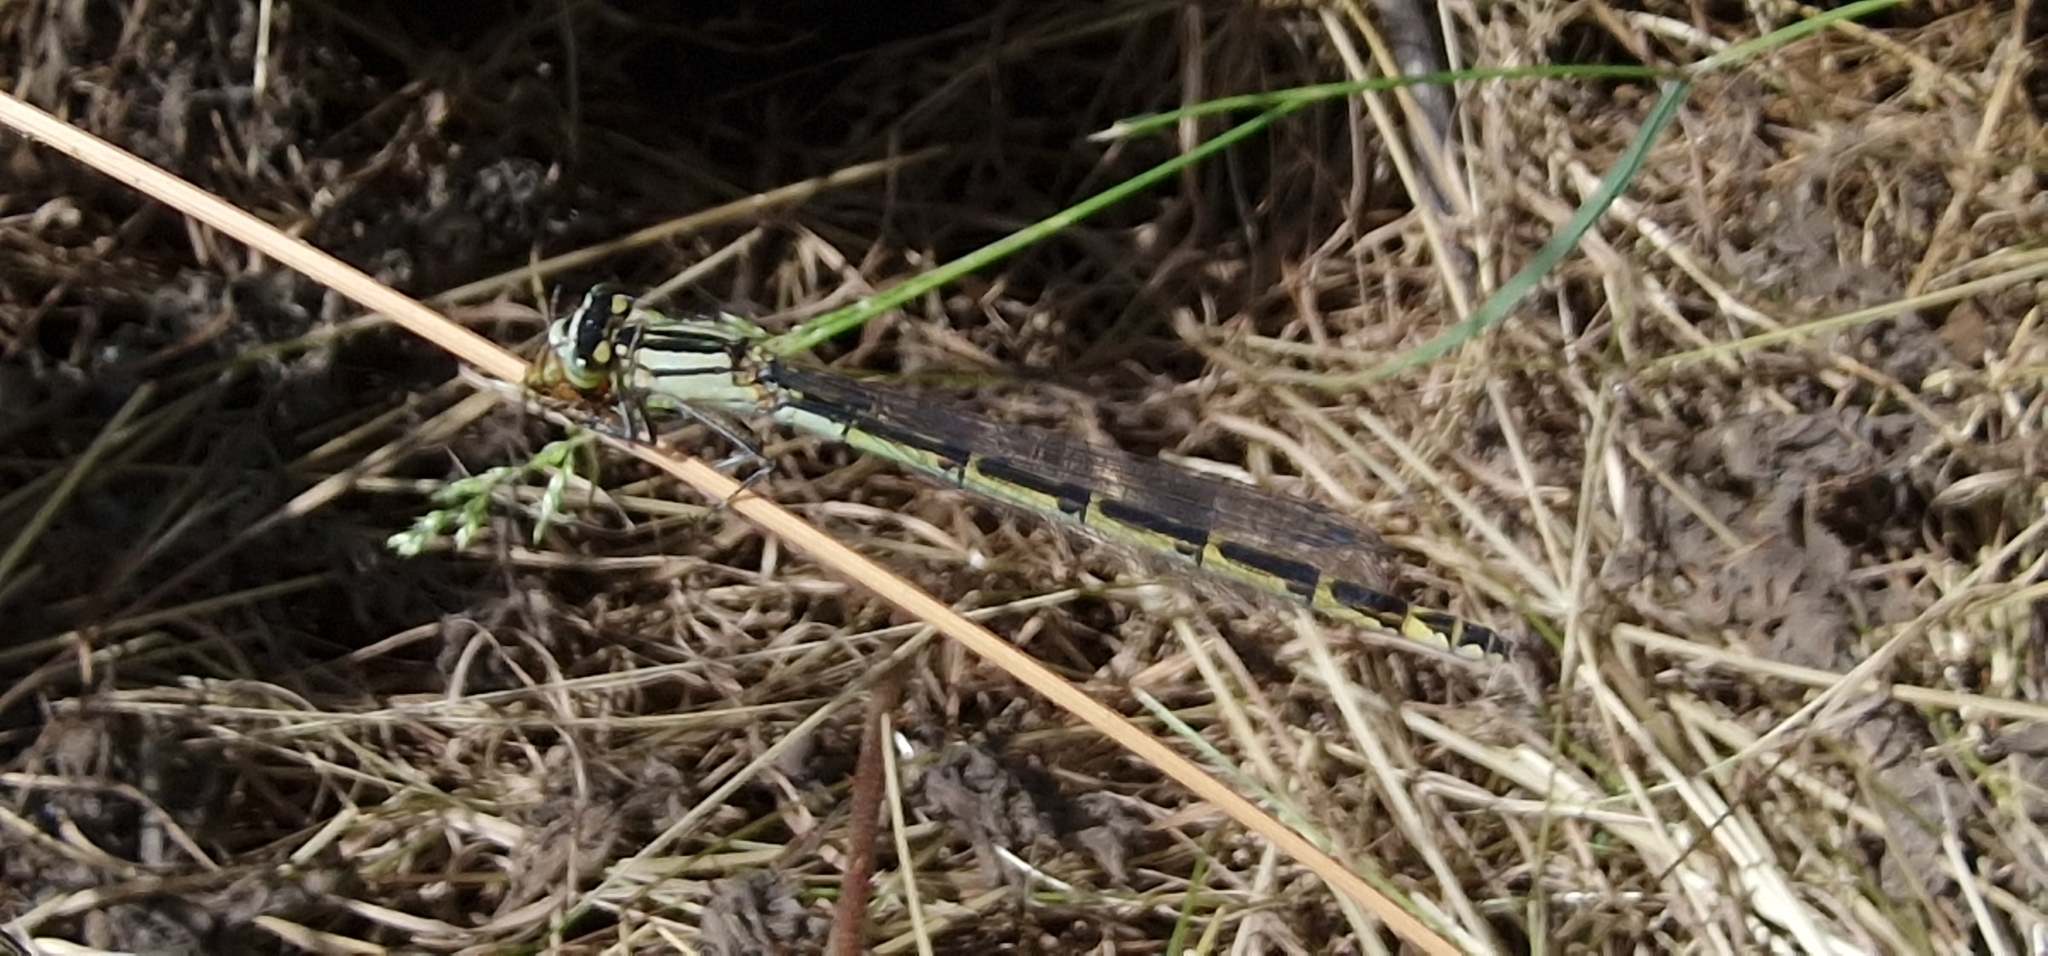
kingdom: Animalia
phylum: Arthropoda
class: Insecta
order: Odonata
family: Coenagrionidae
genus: Enallagma
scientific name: Enallagma cyathigerum
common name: Common blue damselfly
